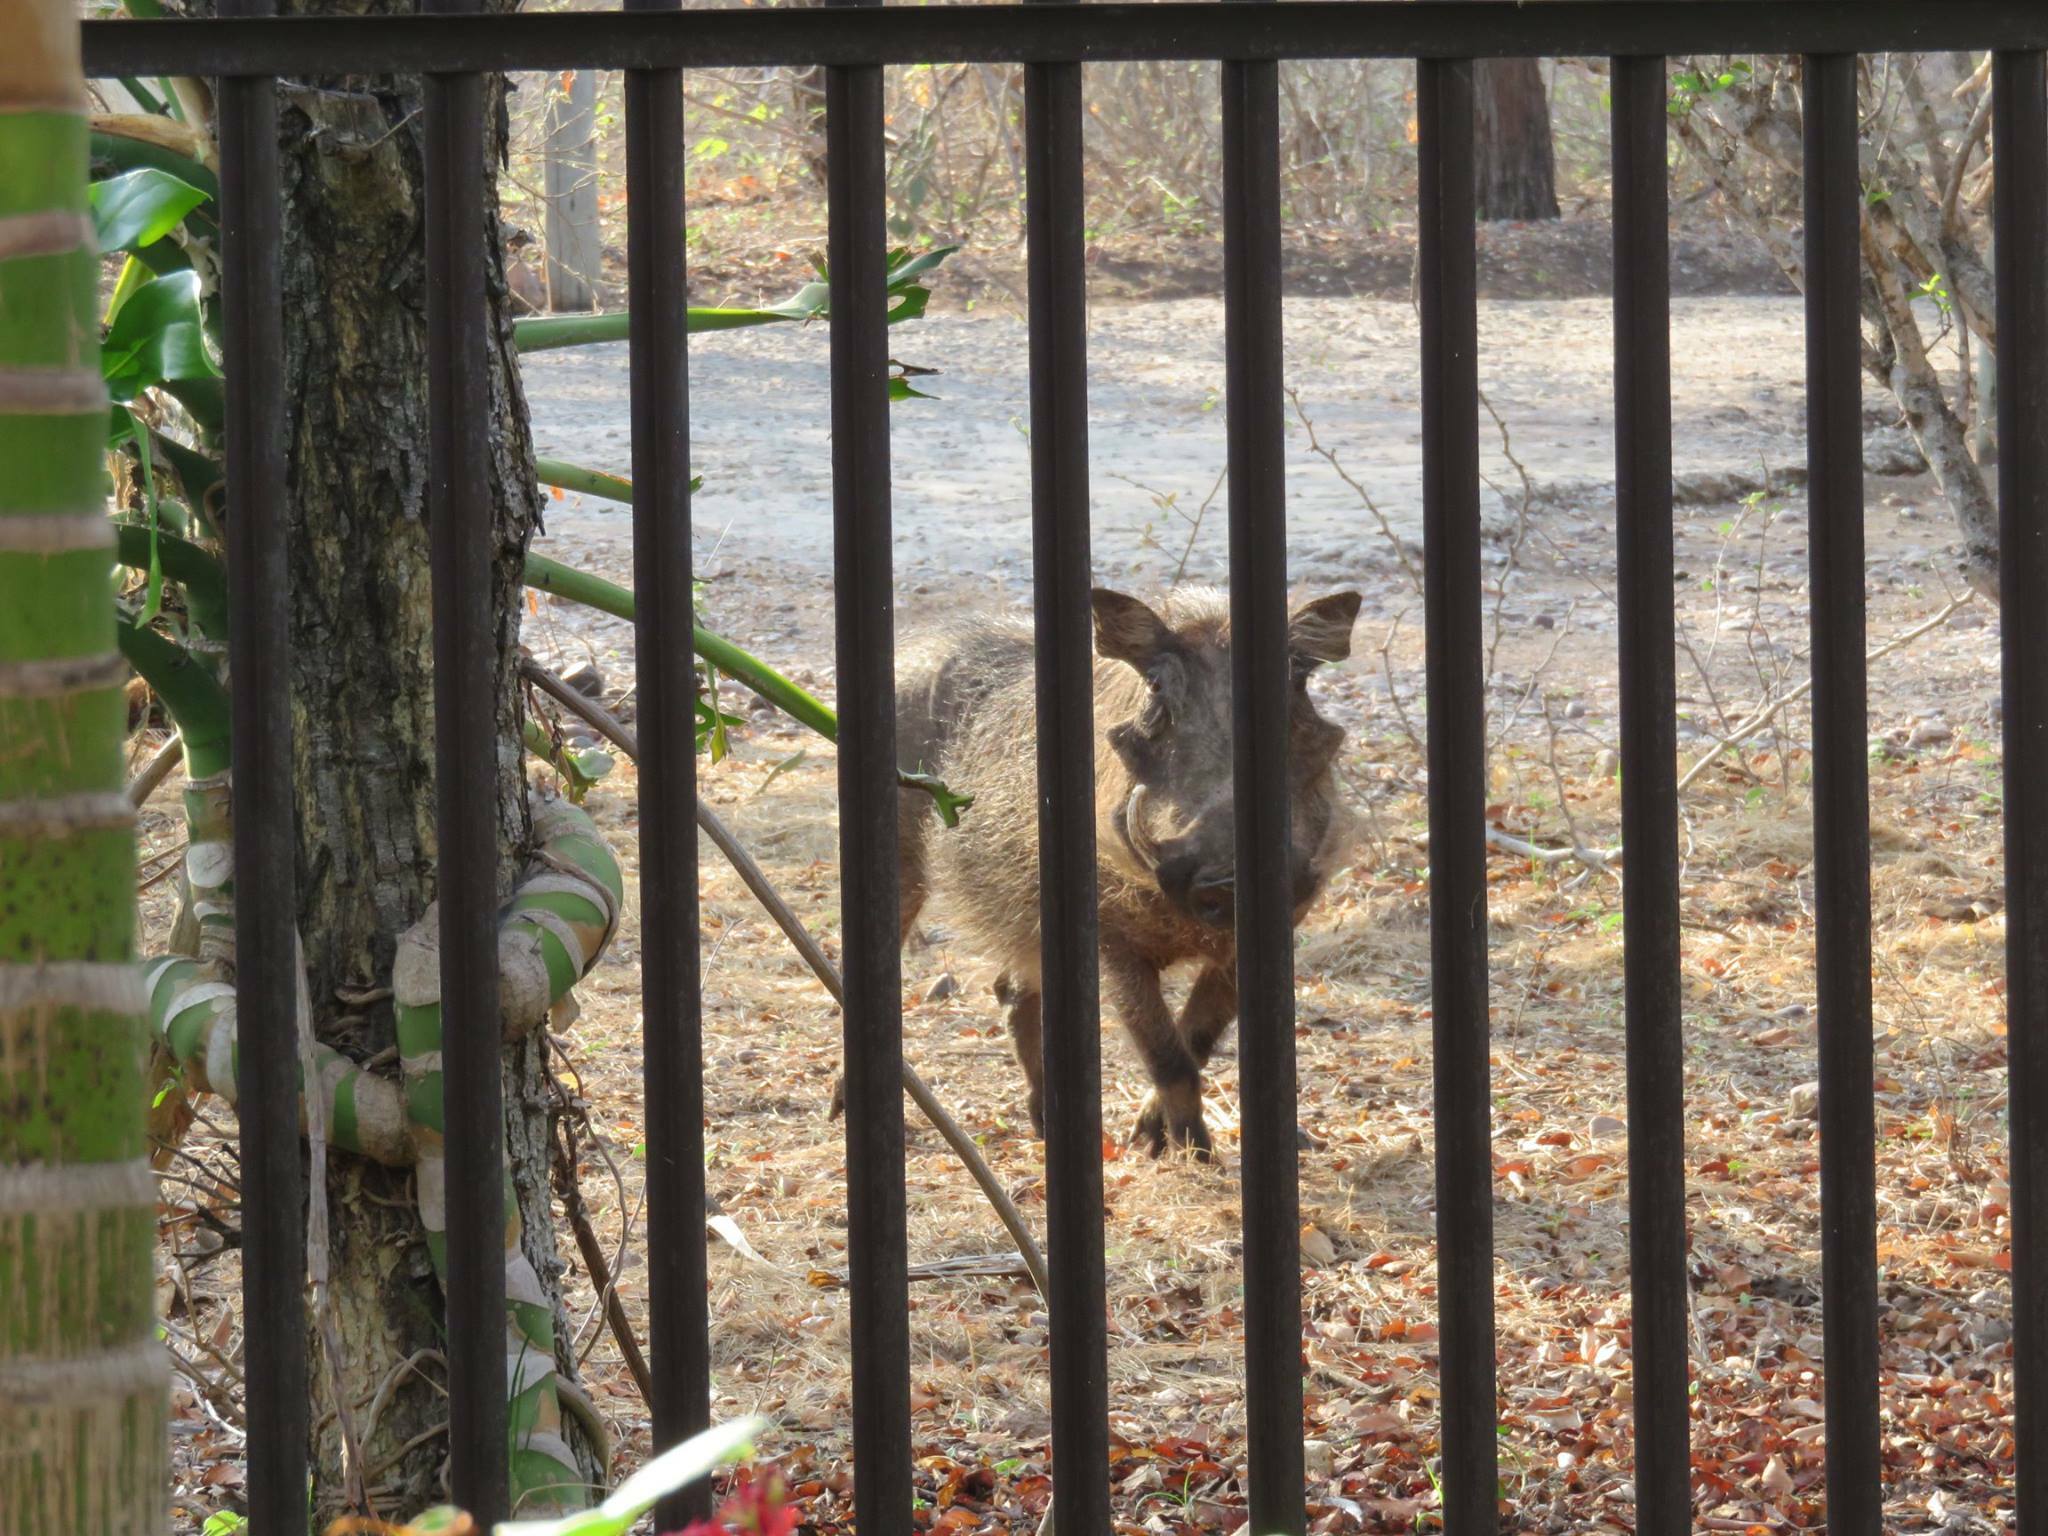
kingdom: Animalia
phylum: Chordata
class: Mammalia
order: Artiodactyla
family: Suidae
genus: Phacochoerus
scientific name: Phacochoerus africanus
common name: Common warthog
